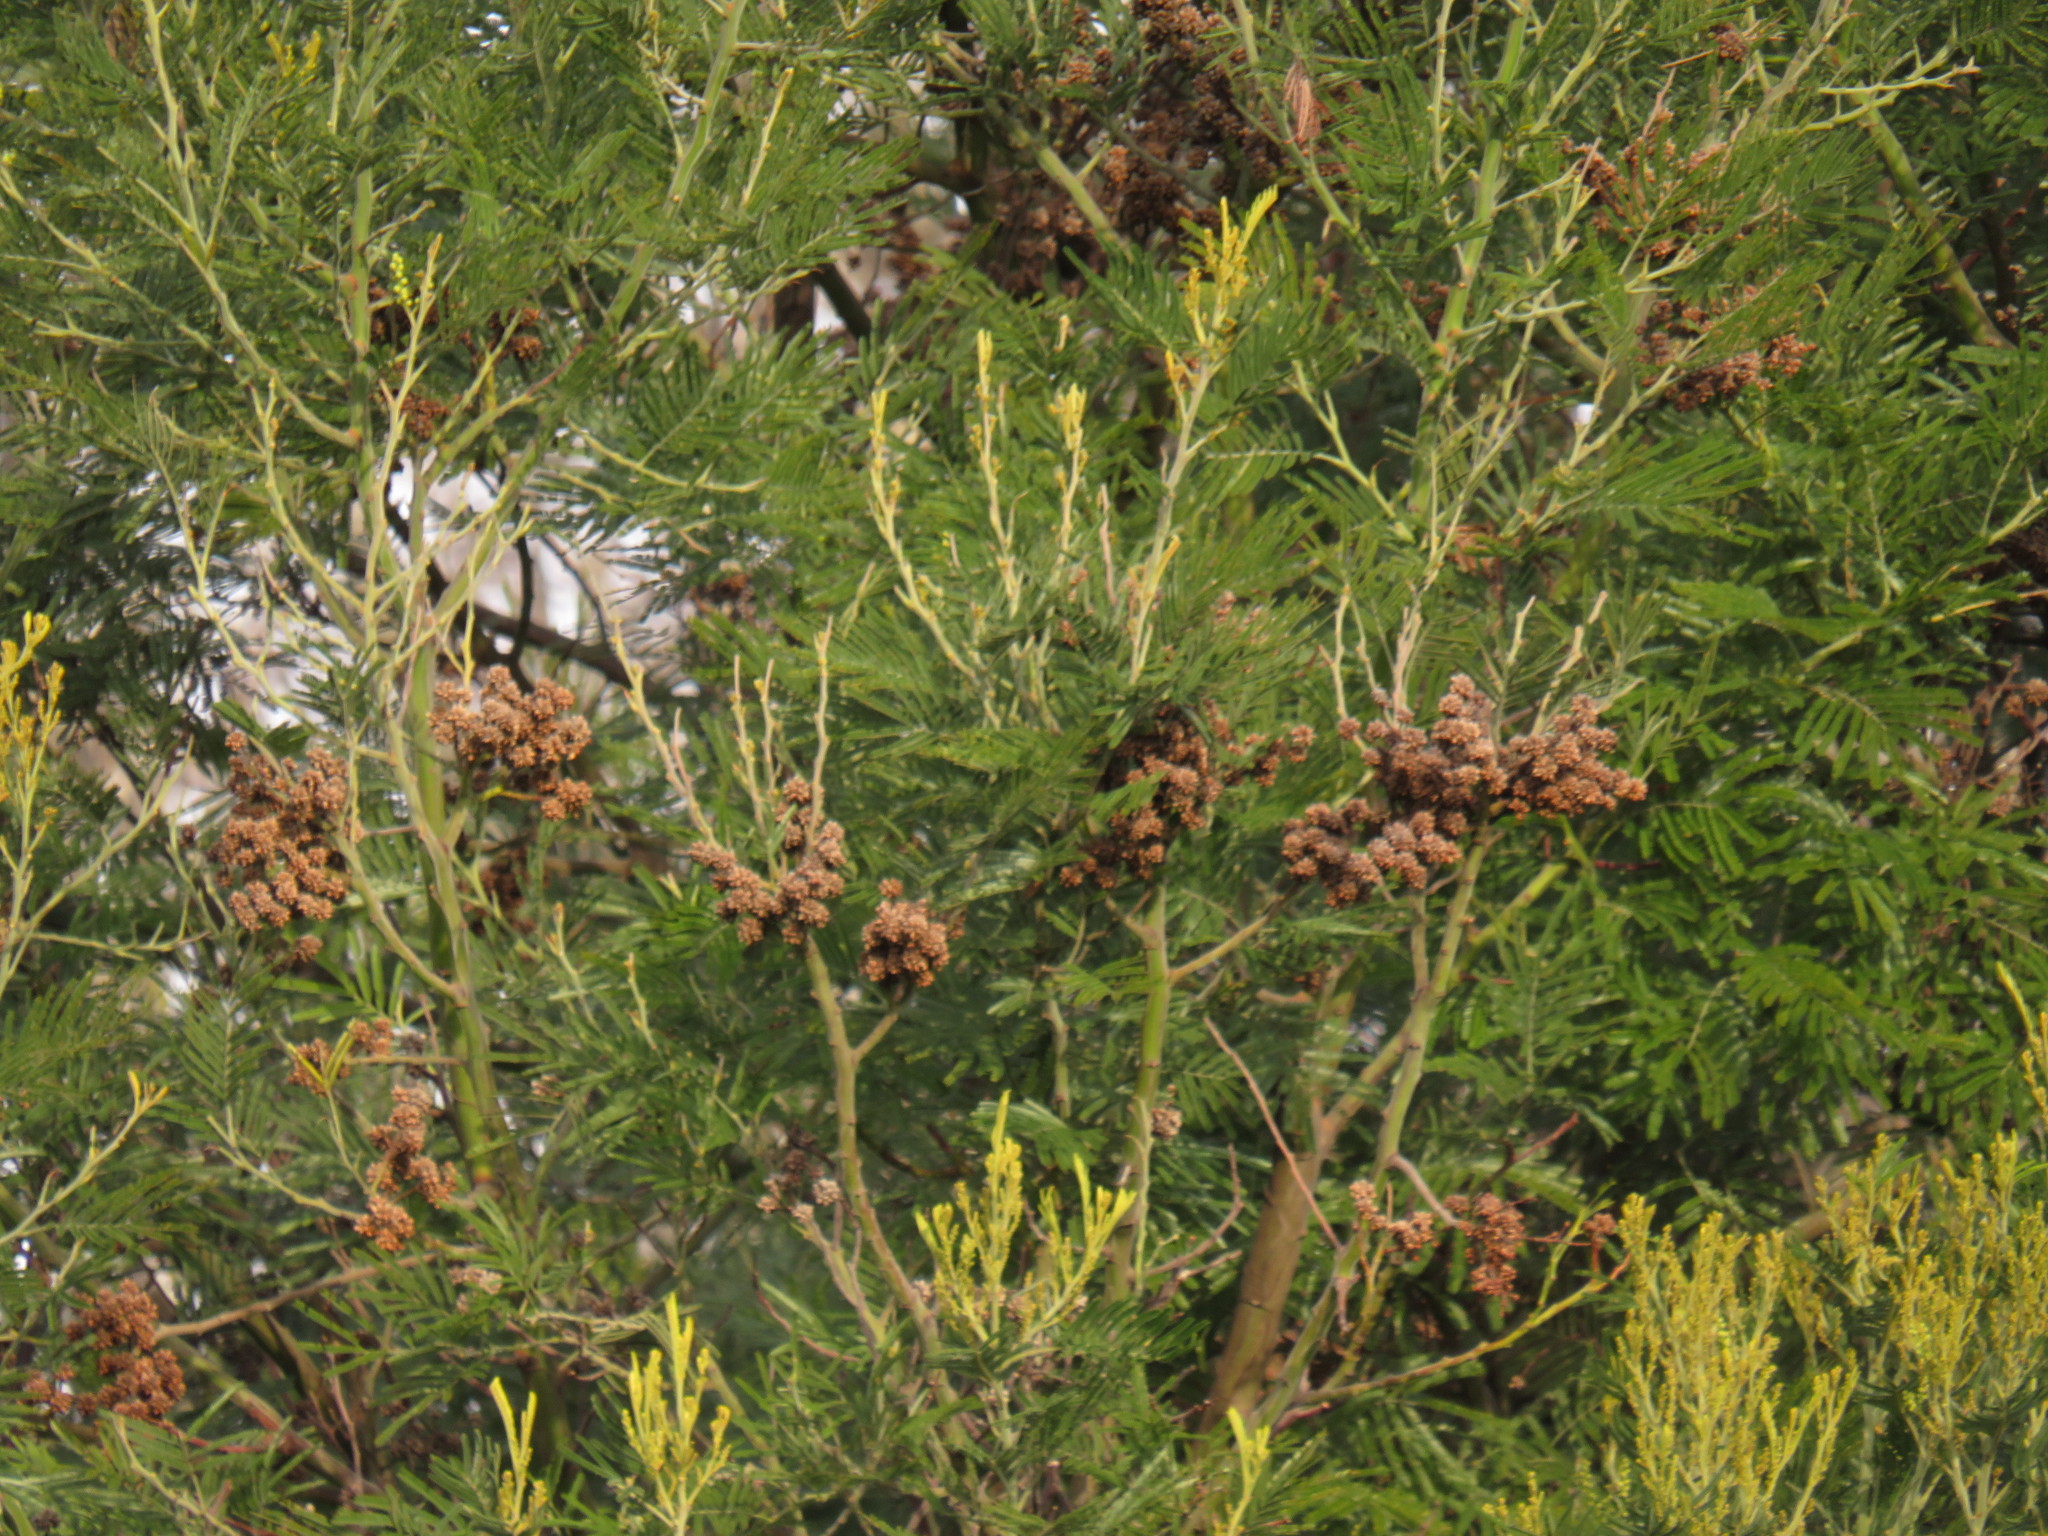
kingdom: Plantae
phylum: Tracheophyta
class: Magnoliopsida
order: Fabales
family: Fabaceae
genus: Acacia
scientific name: Acacia mearnsii
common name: Black wattle
